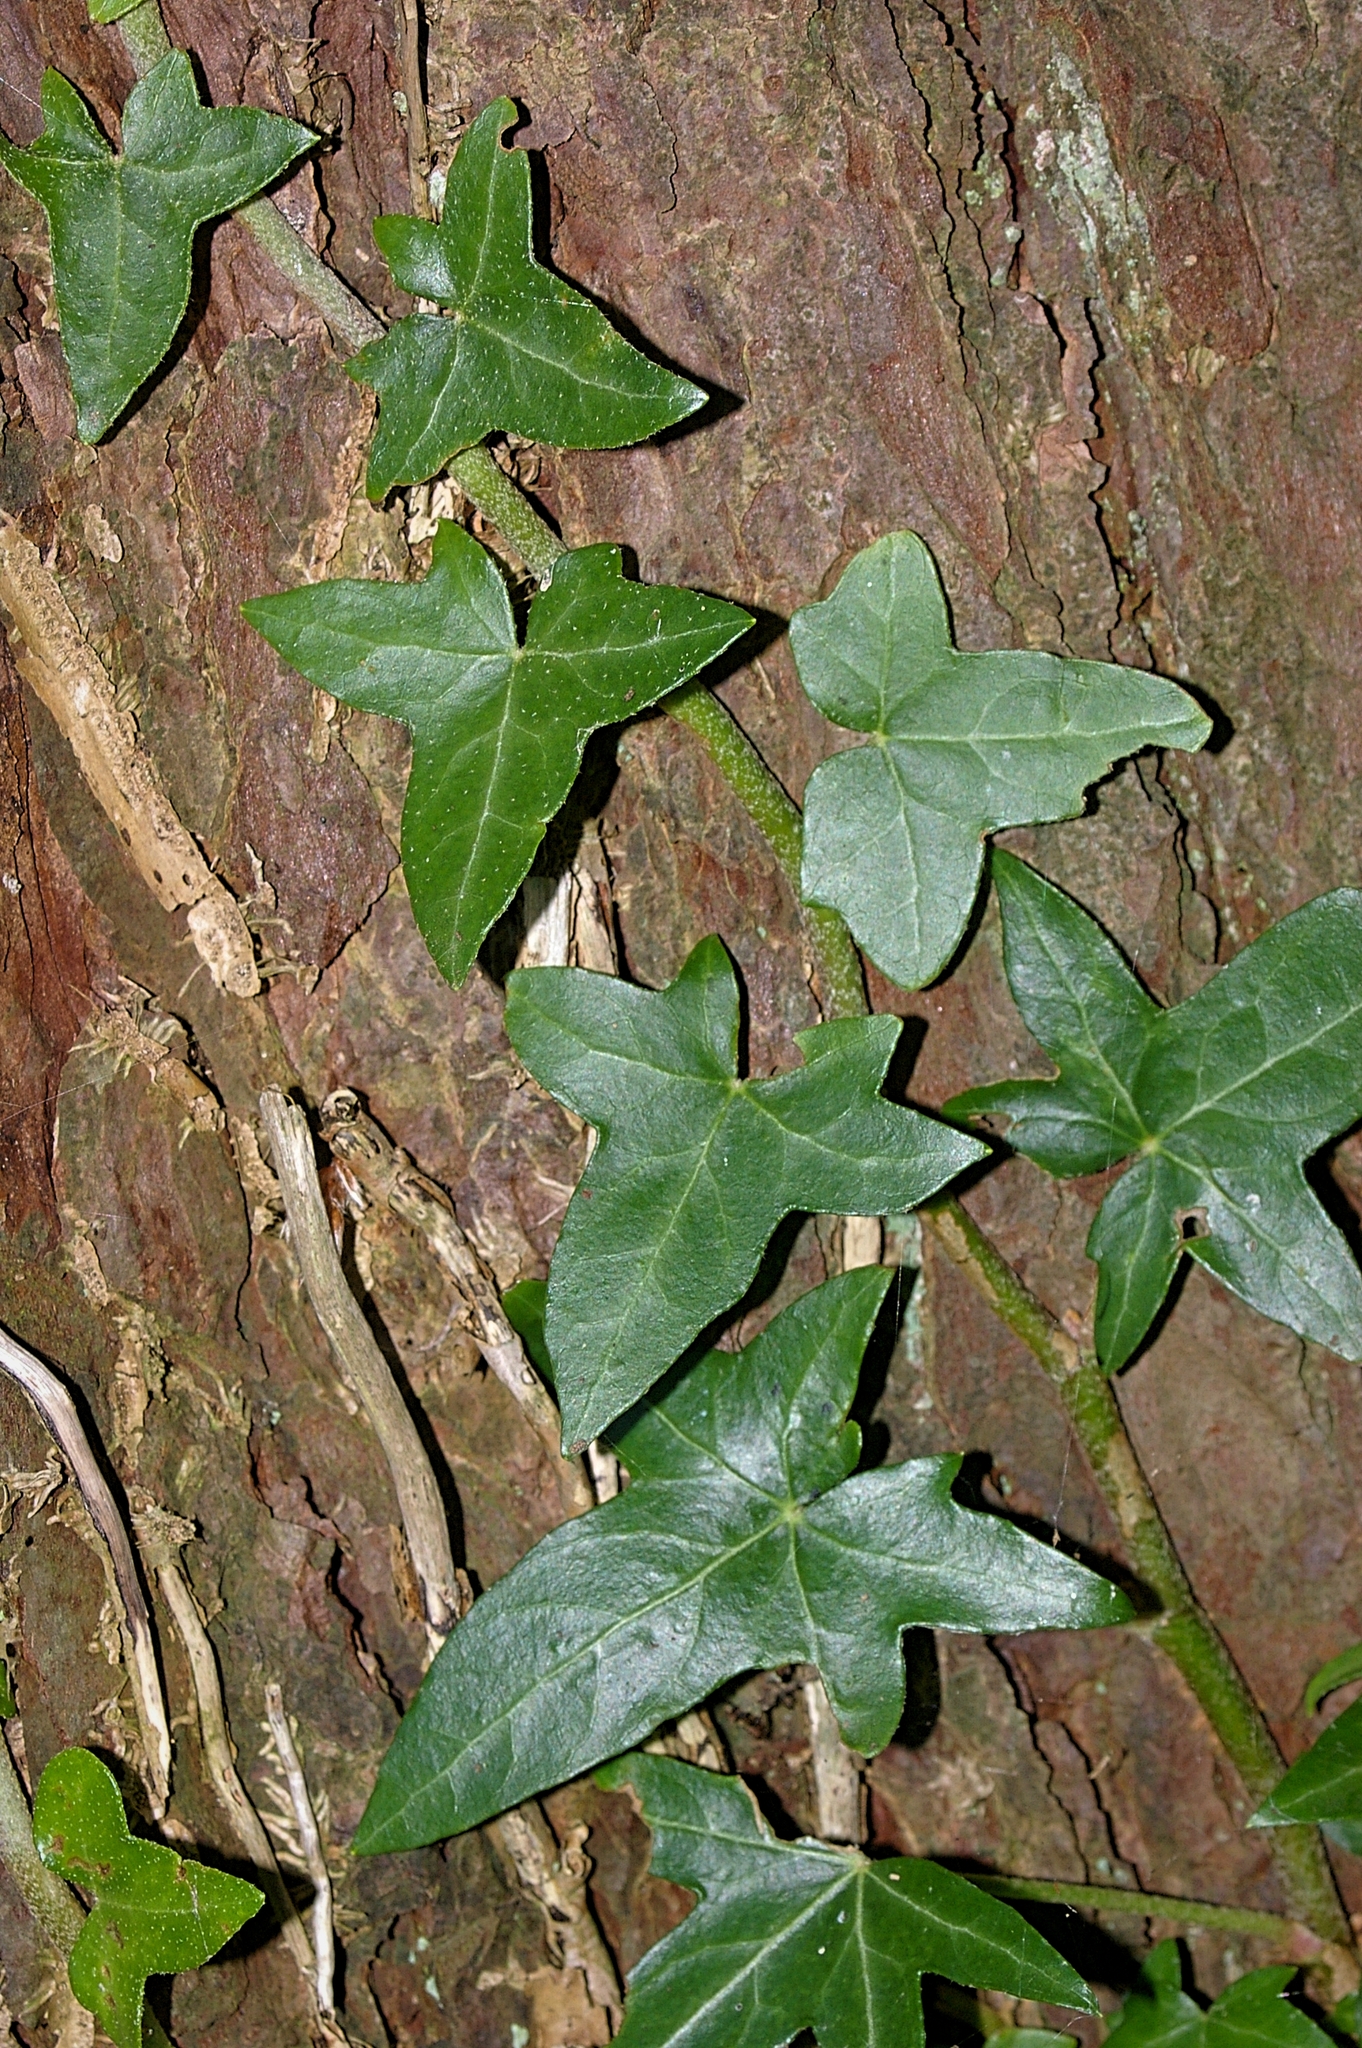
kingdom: Plantae
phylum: Tracheophyta
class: Magnoliopsida
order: Apiales
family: Araliaceae
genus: Hedera
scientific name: Hedera helix
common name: Ivy
